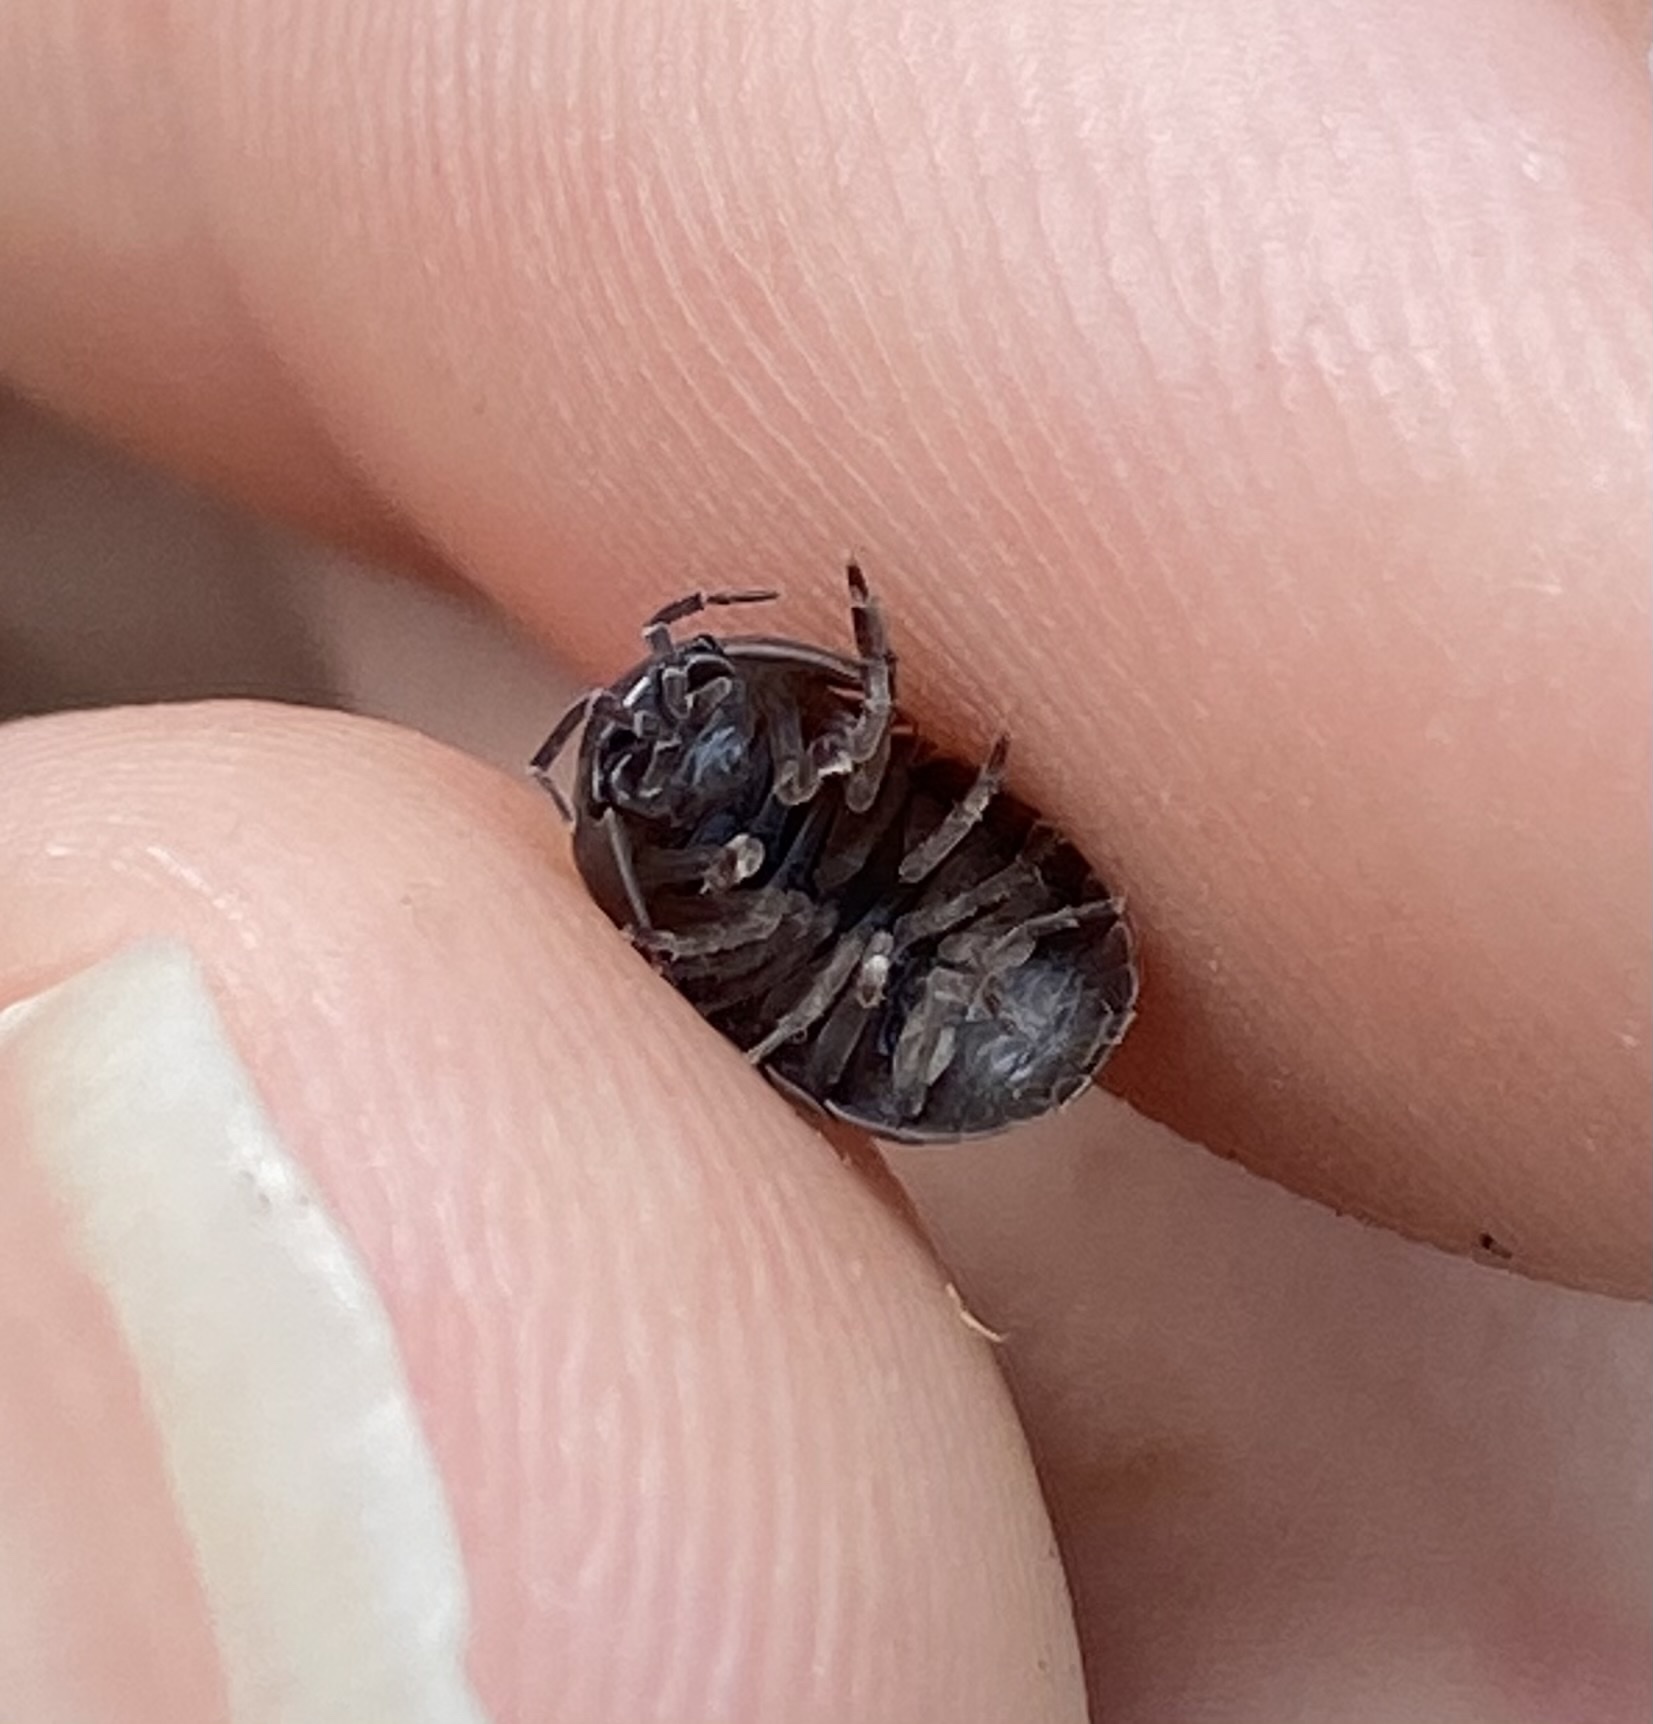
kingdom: Animalia
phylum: Arthropoda
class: Malacostraca
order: Isopoda
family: Armadillidiidae
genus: Armadillidium
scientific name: Armadillidium vulgare
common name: Common pill woodlouse
